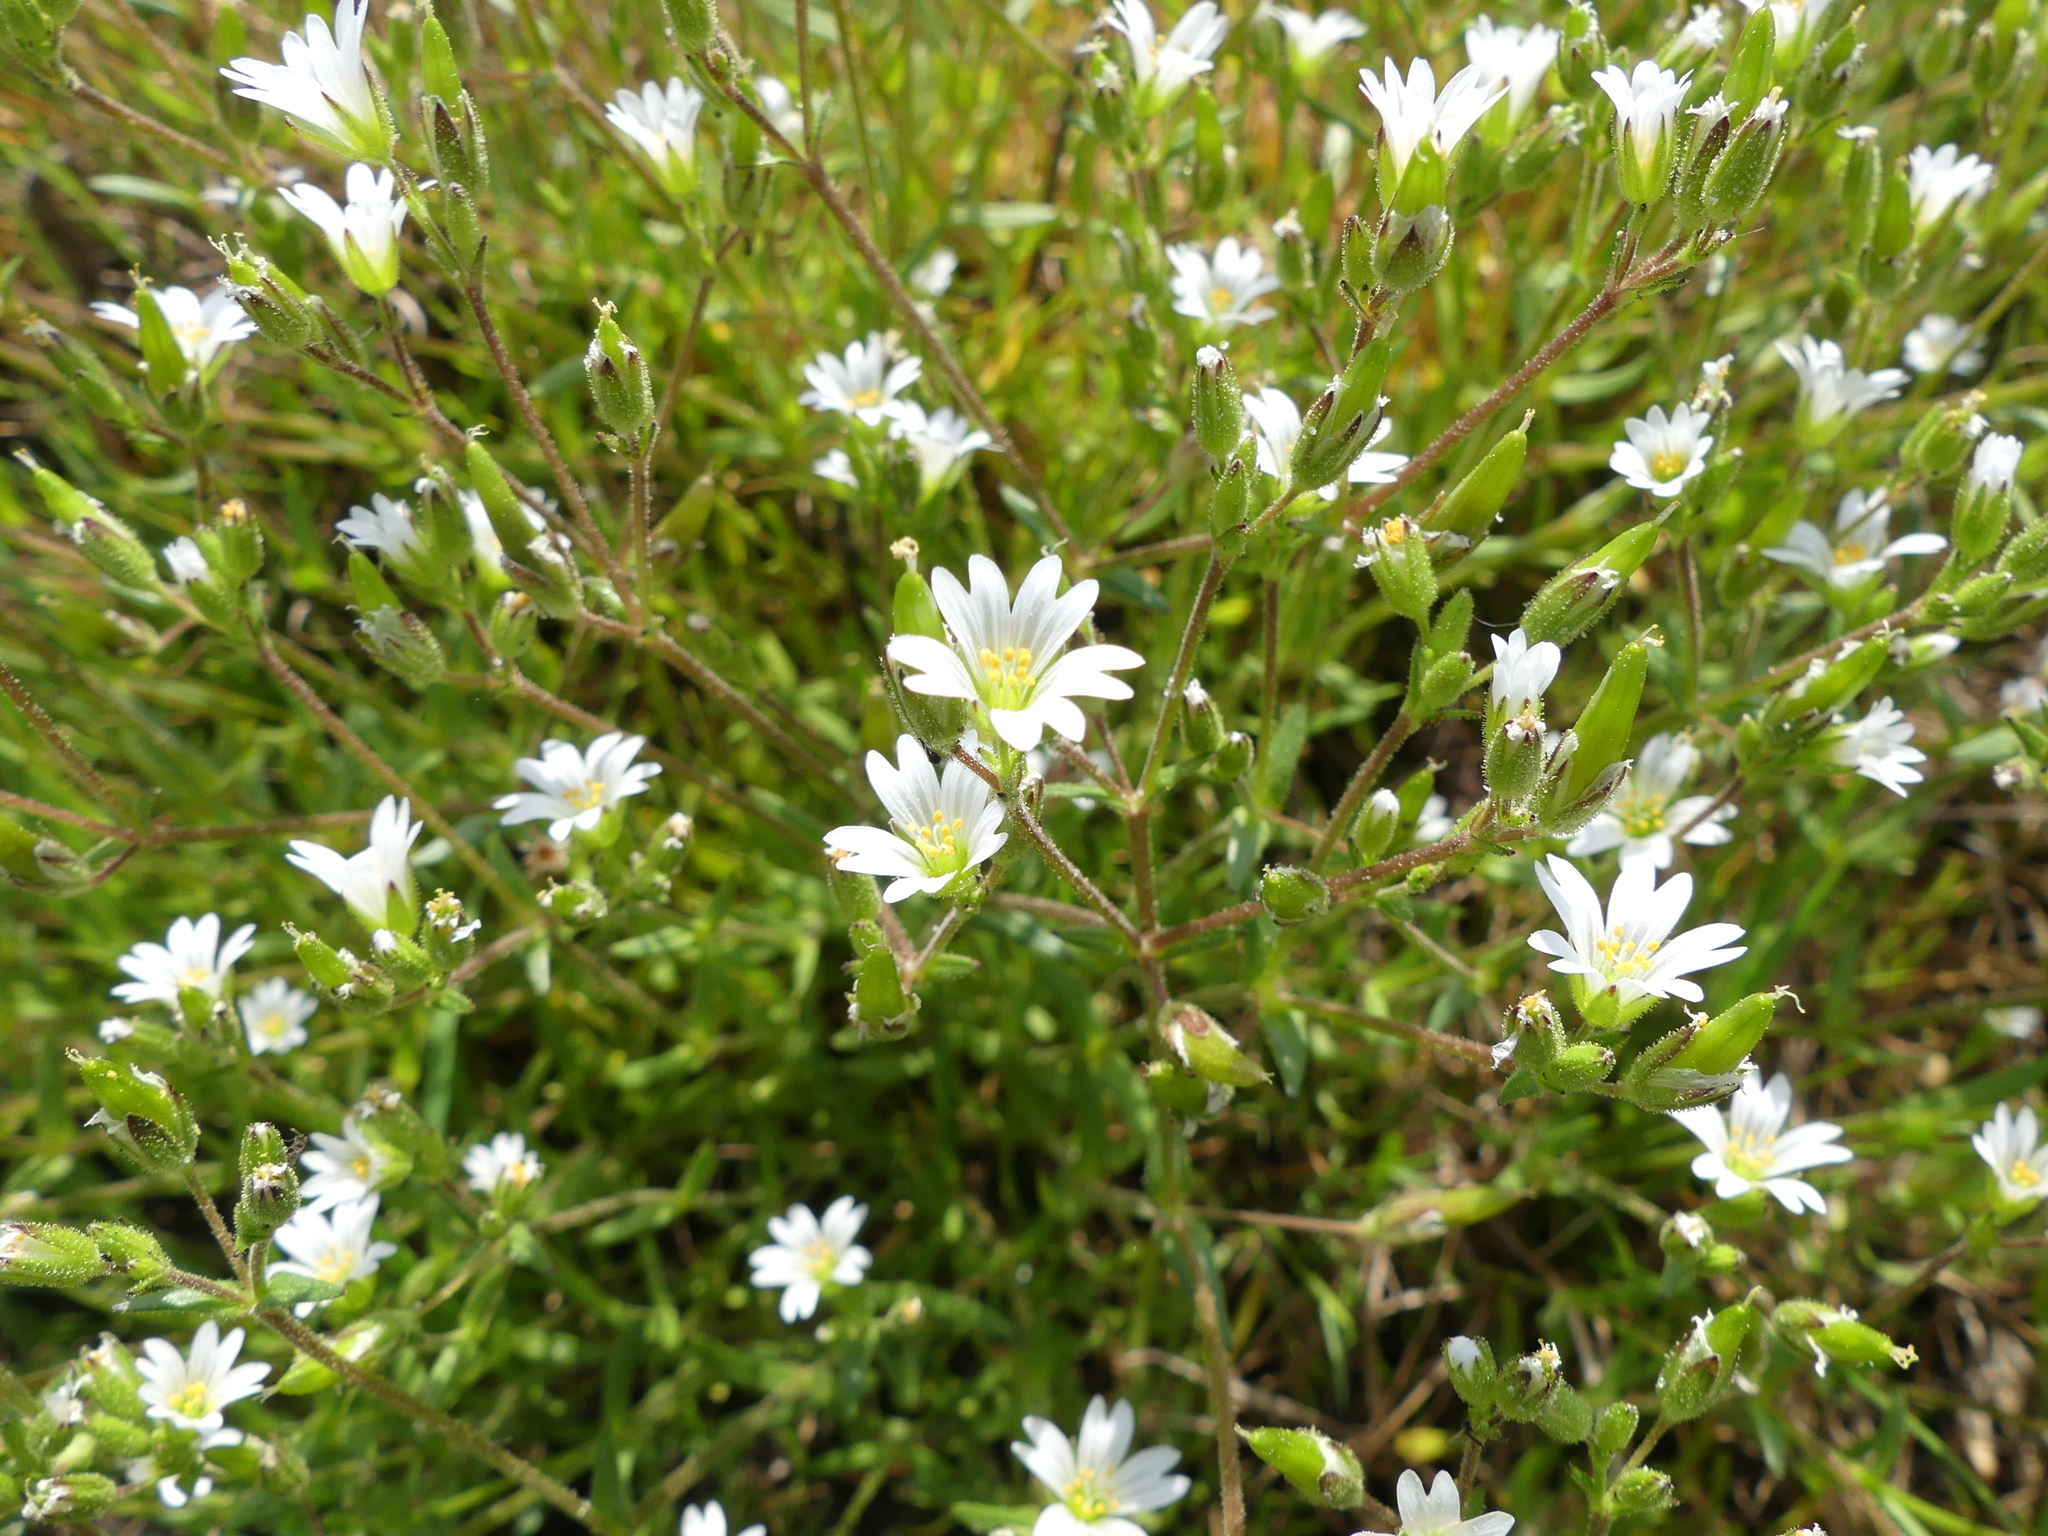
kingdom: Plantae
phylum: Tracheophyta
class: Magnoliopsida
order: Caryophyllales
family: Caryophyllaceae
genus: Cerastium
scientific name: Cerastium arvense
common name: Field mouse-ear
